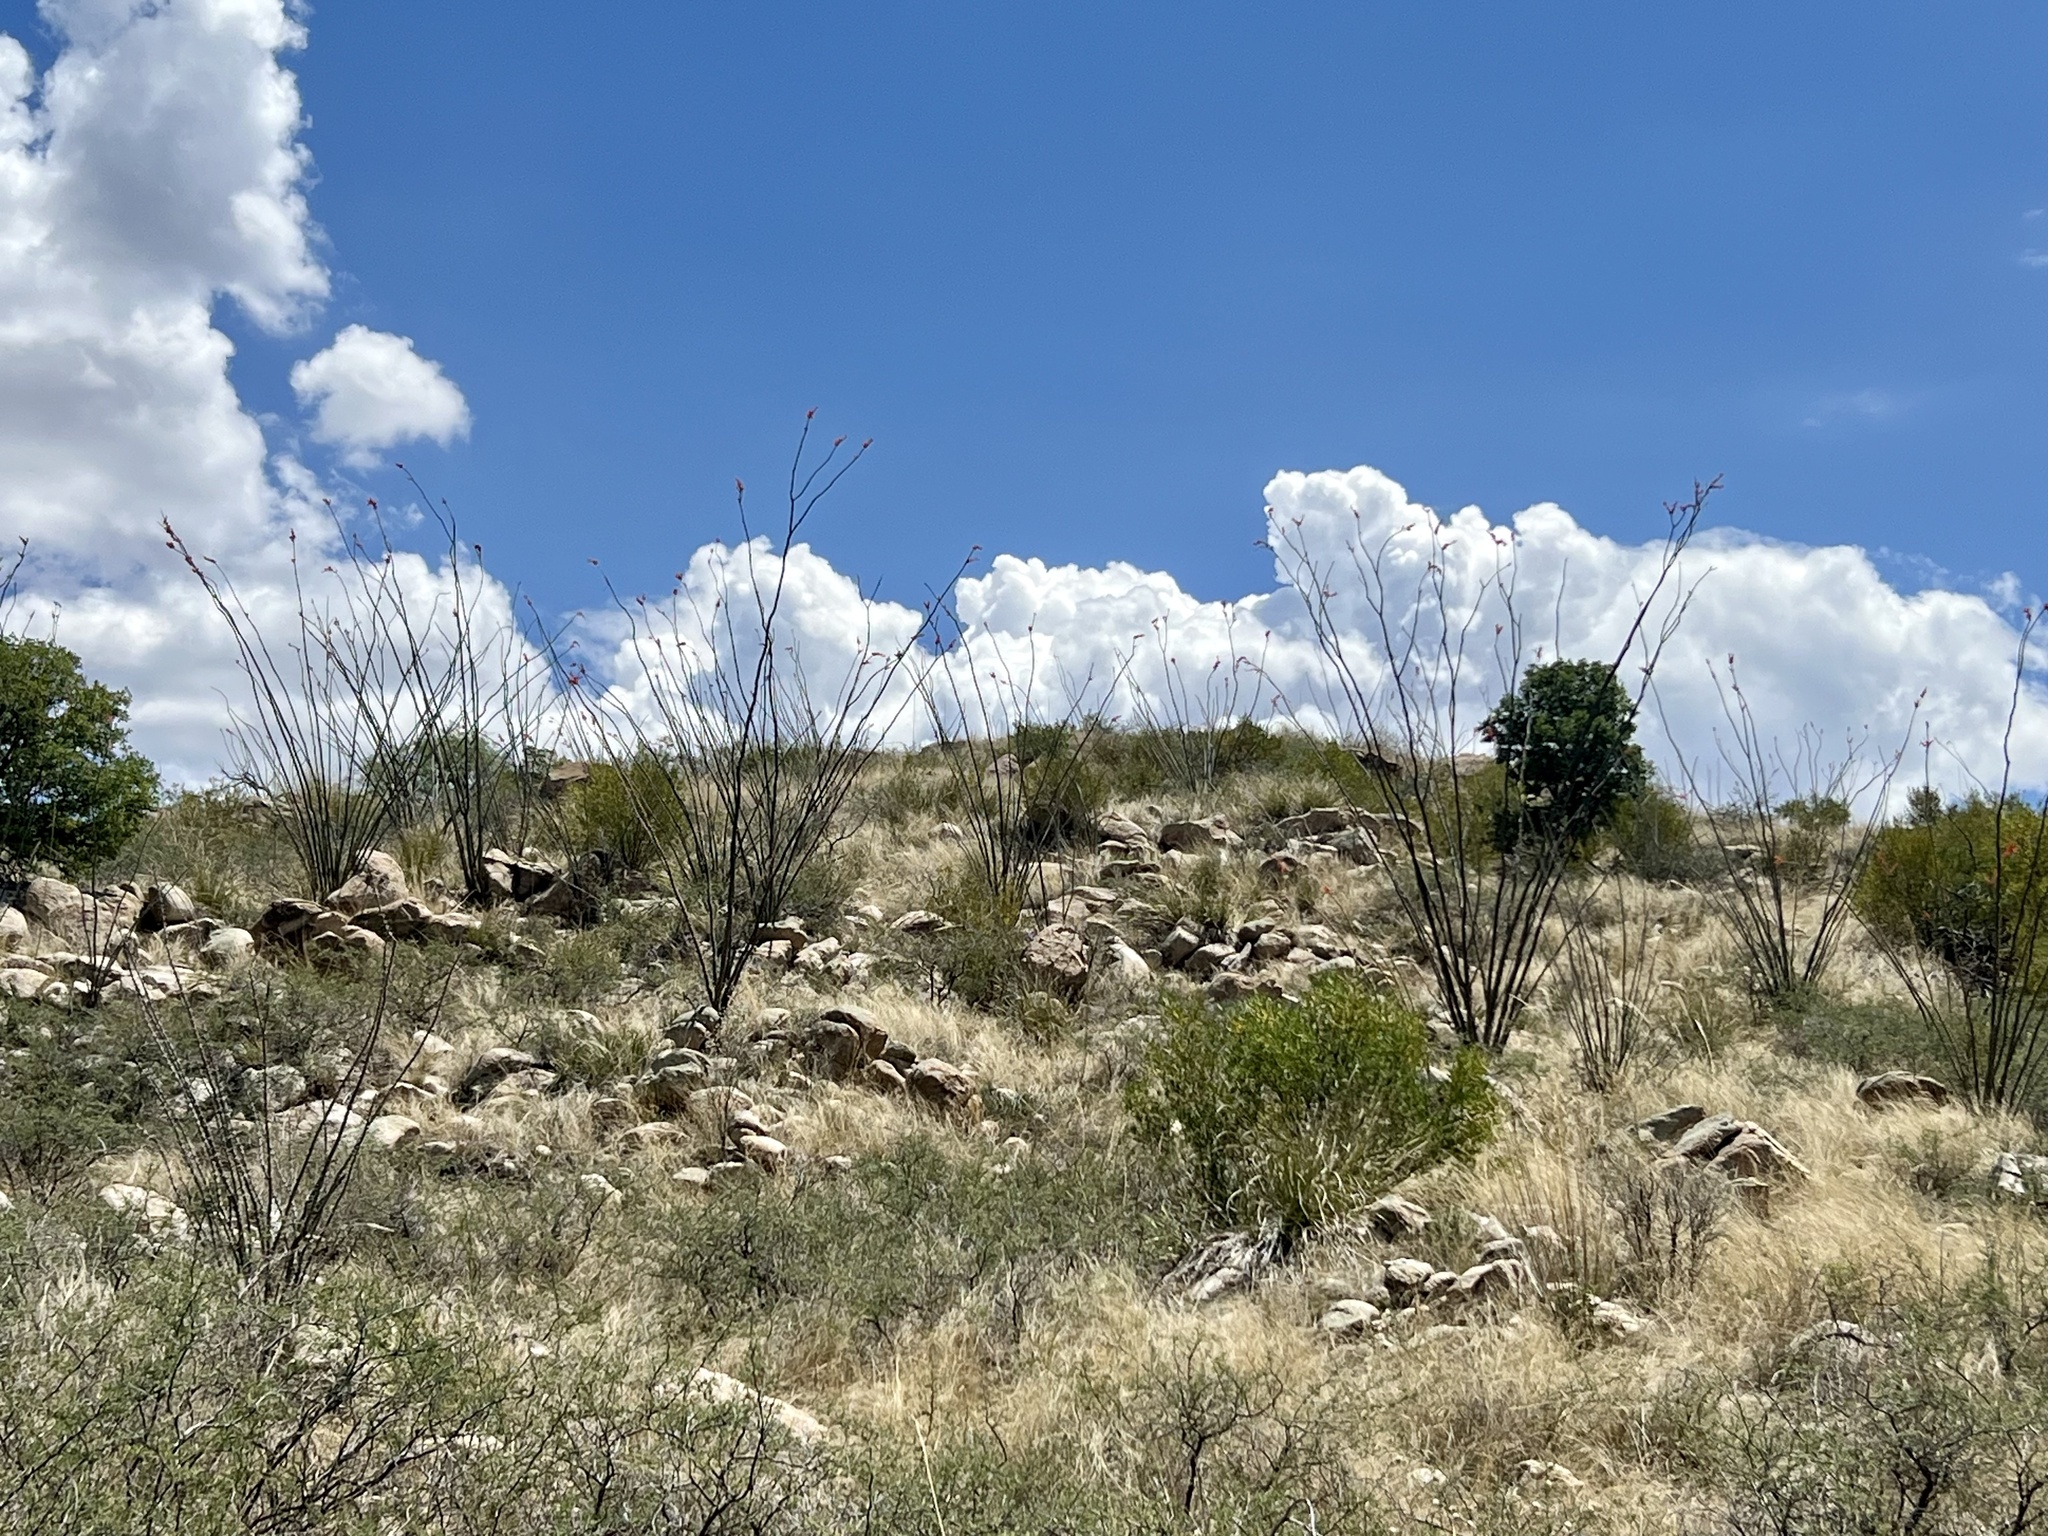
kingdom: Plantae
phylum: Tracheophyta
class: Magnoliopsida
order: Ericales
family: Fouquieriaceae
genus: Fouquieria
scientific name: Fouquieria splendens
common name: Vine-cactus
